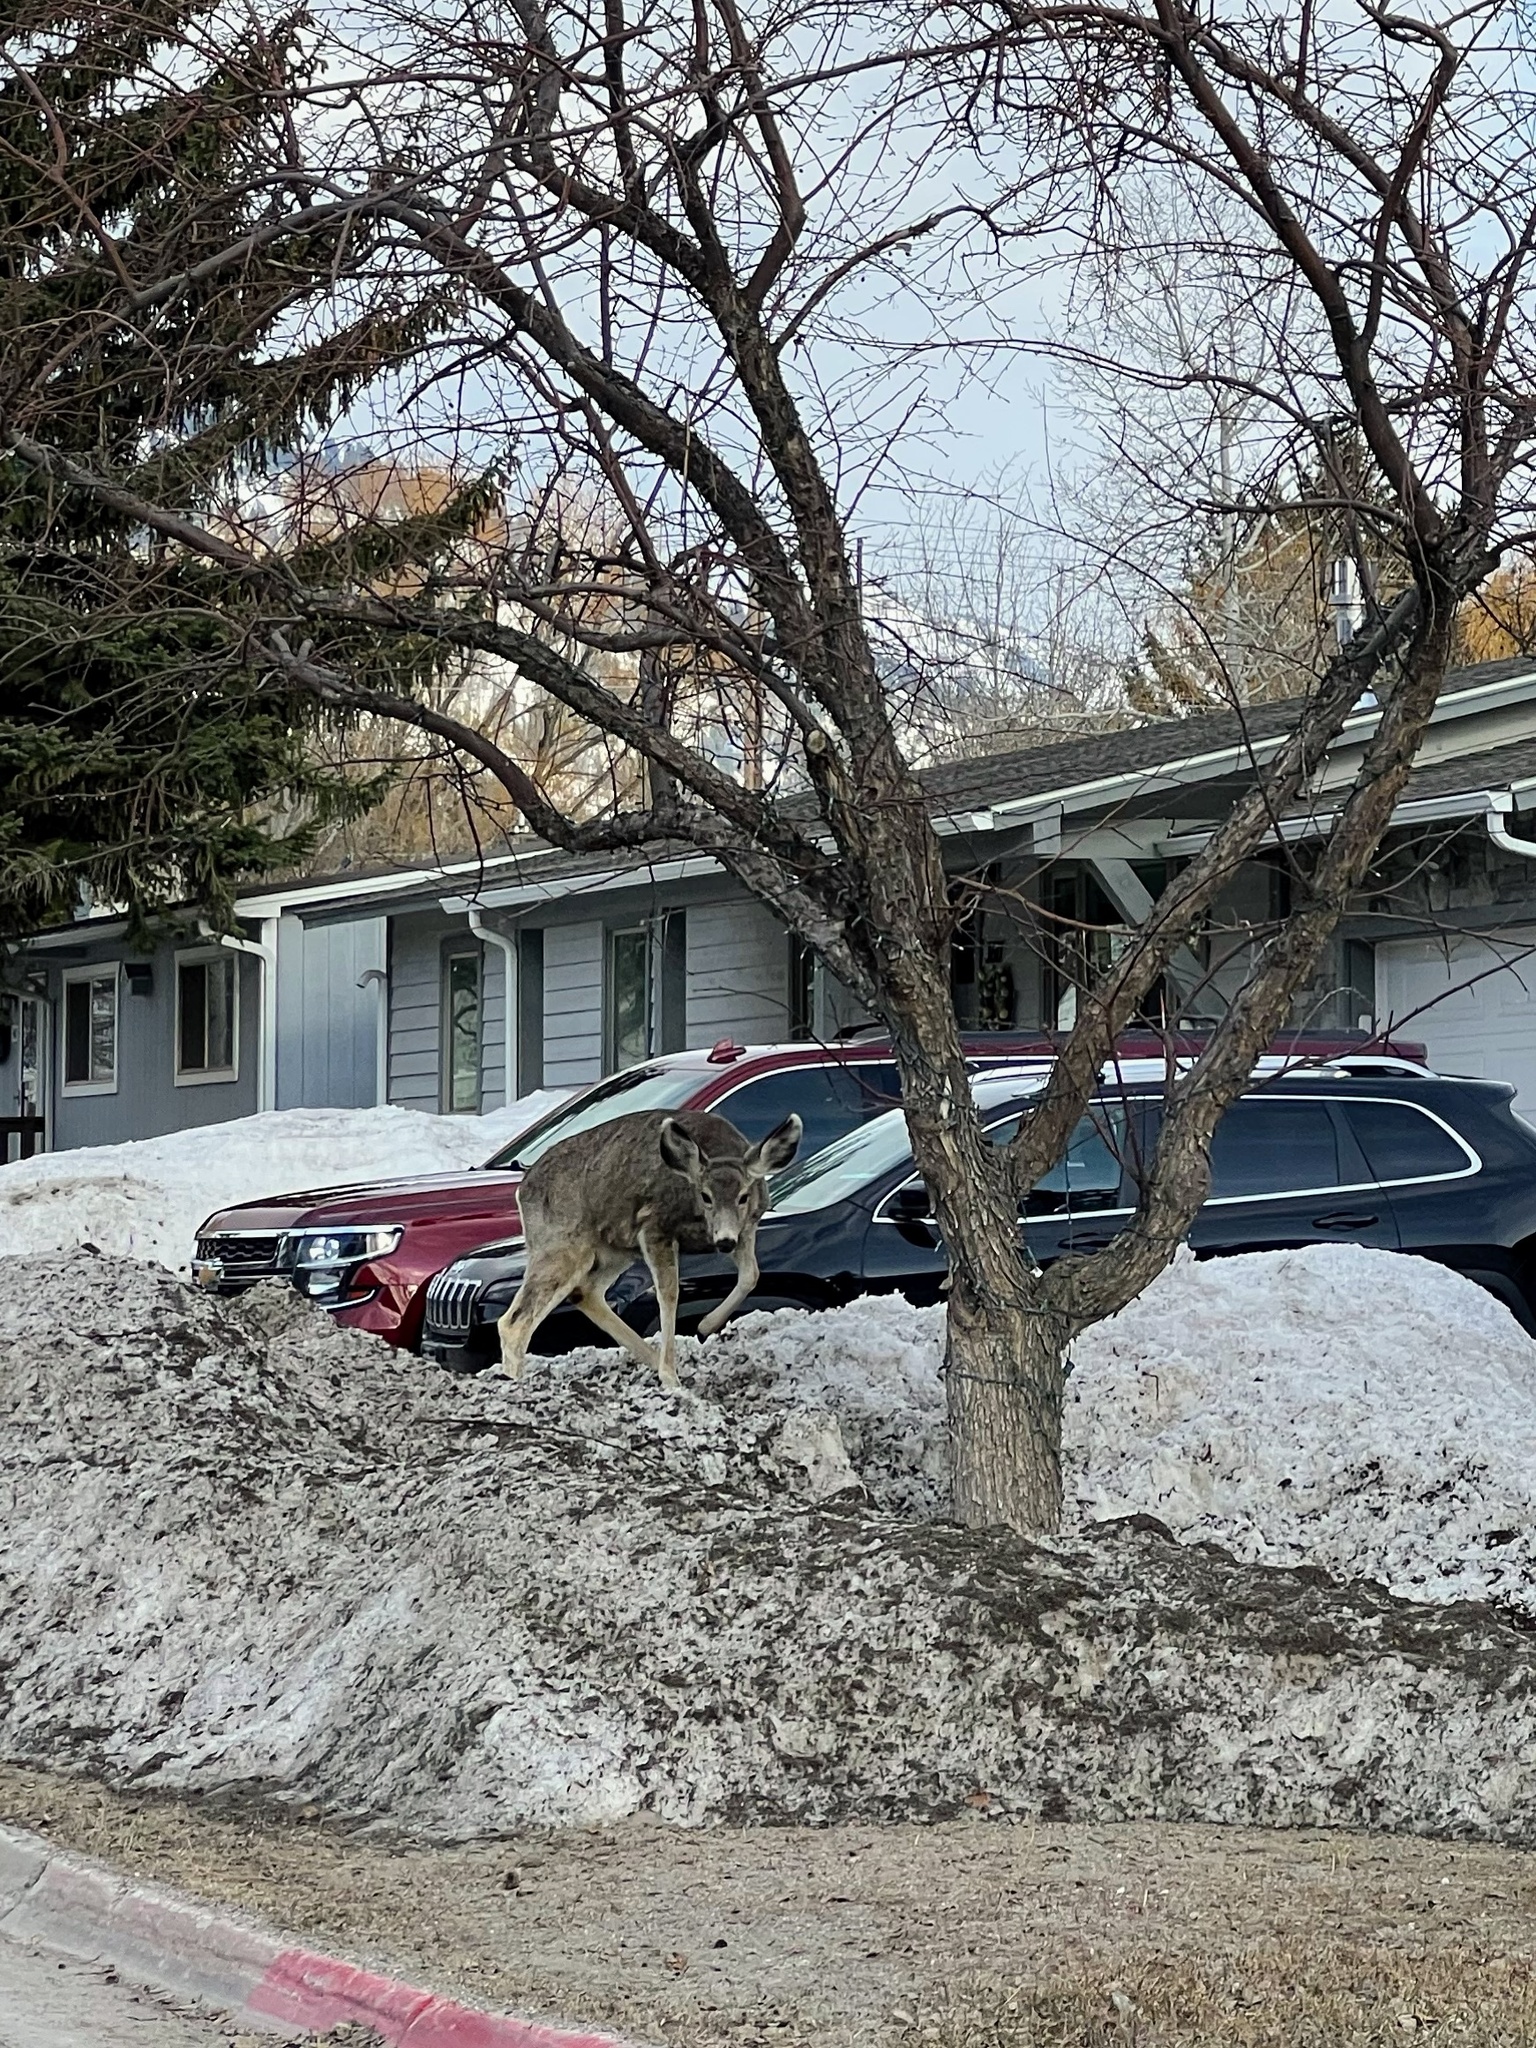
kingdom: Animalia
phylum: Chordata
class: Mammalia
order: Artiodactyla
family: Cervidae
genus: Odocoileus
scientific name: Odocoileus hemionus
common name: Mule deer
